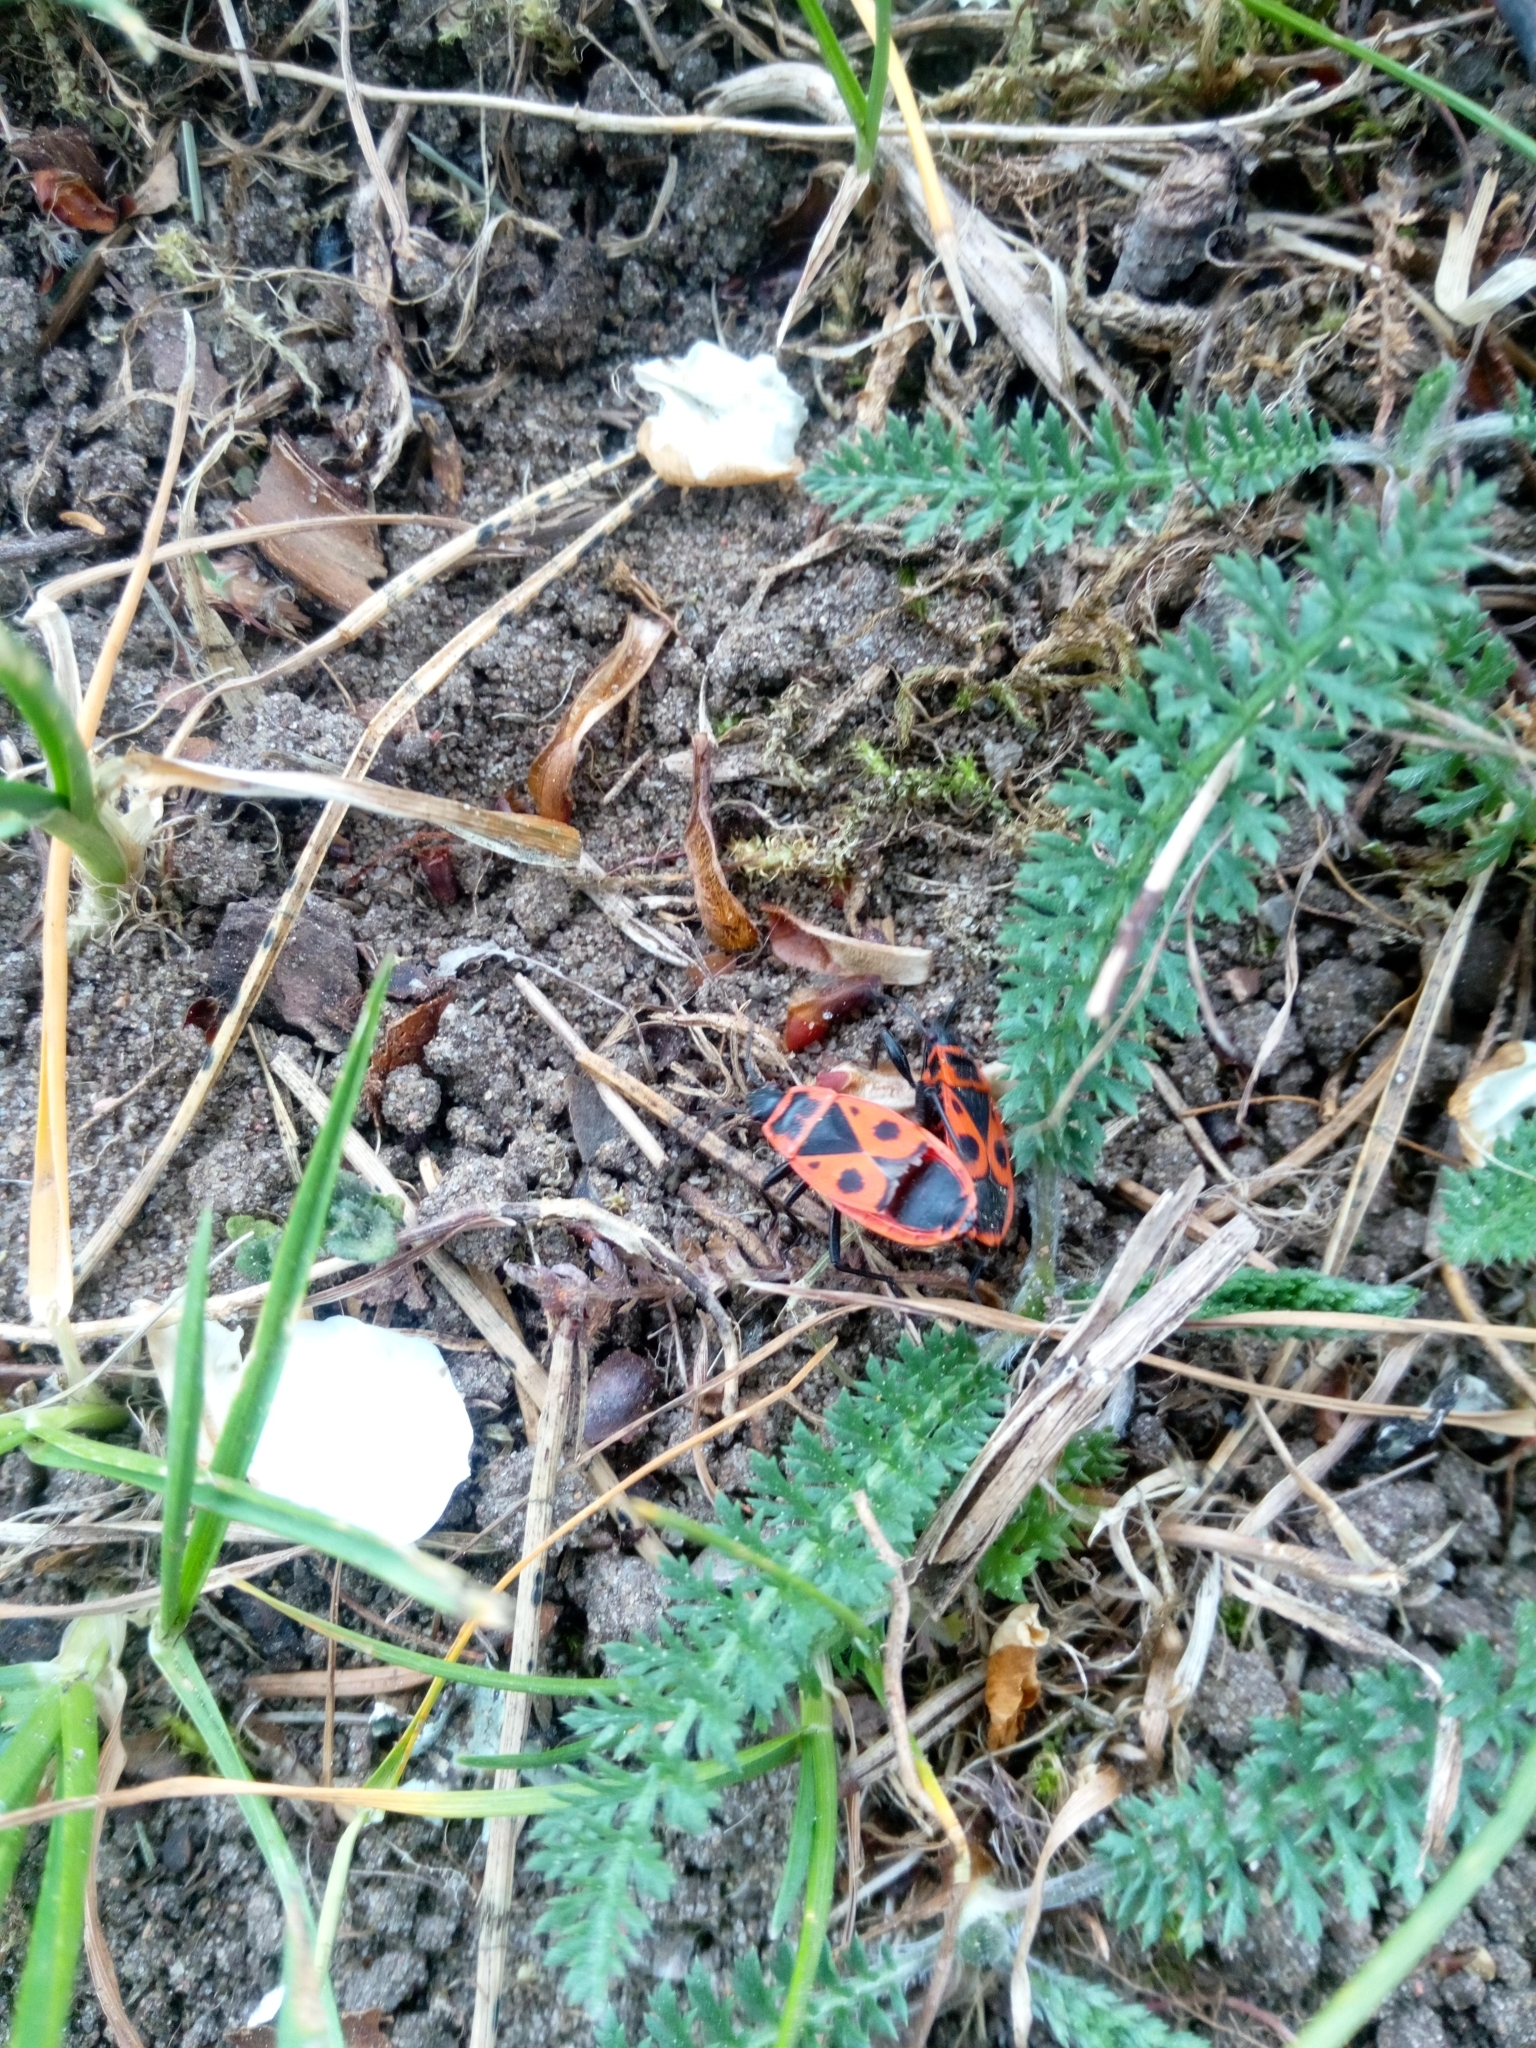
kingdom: Animalia
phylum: Arthropoda
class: Insecta
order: Hemiptera
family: Pyrrhocoridae
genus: Pyrrhocoris
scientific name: Pyrrhocoris apterus
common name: Firebug
